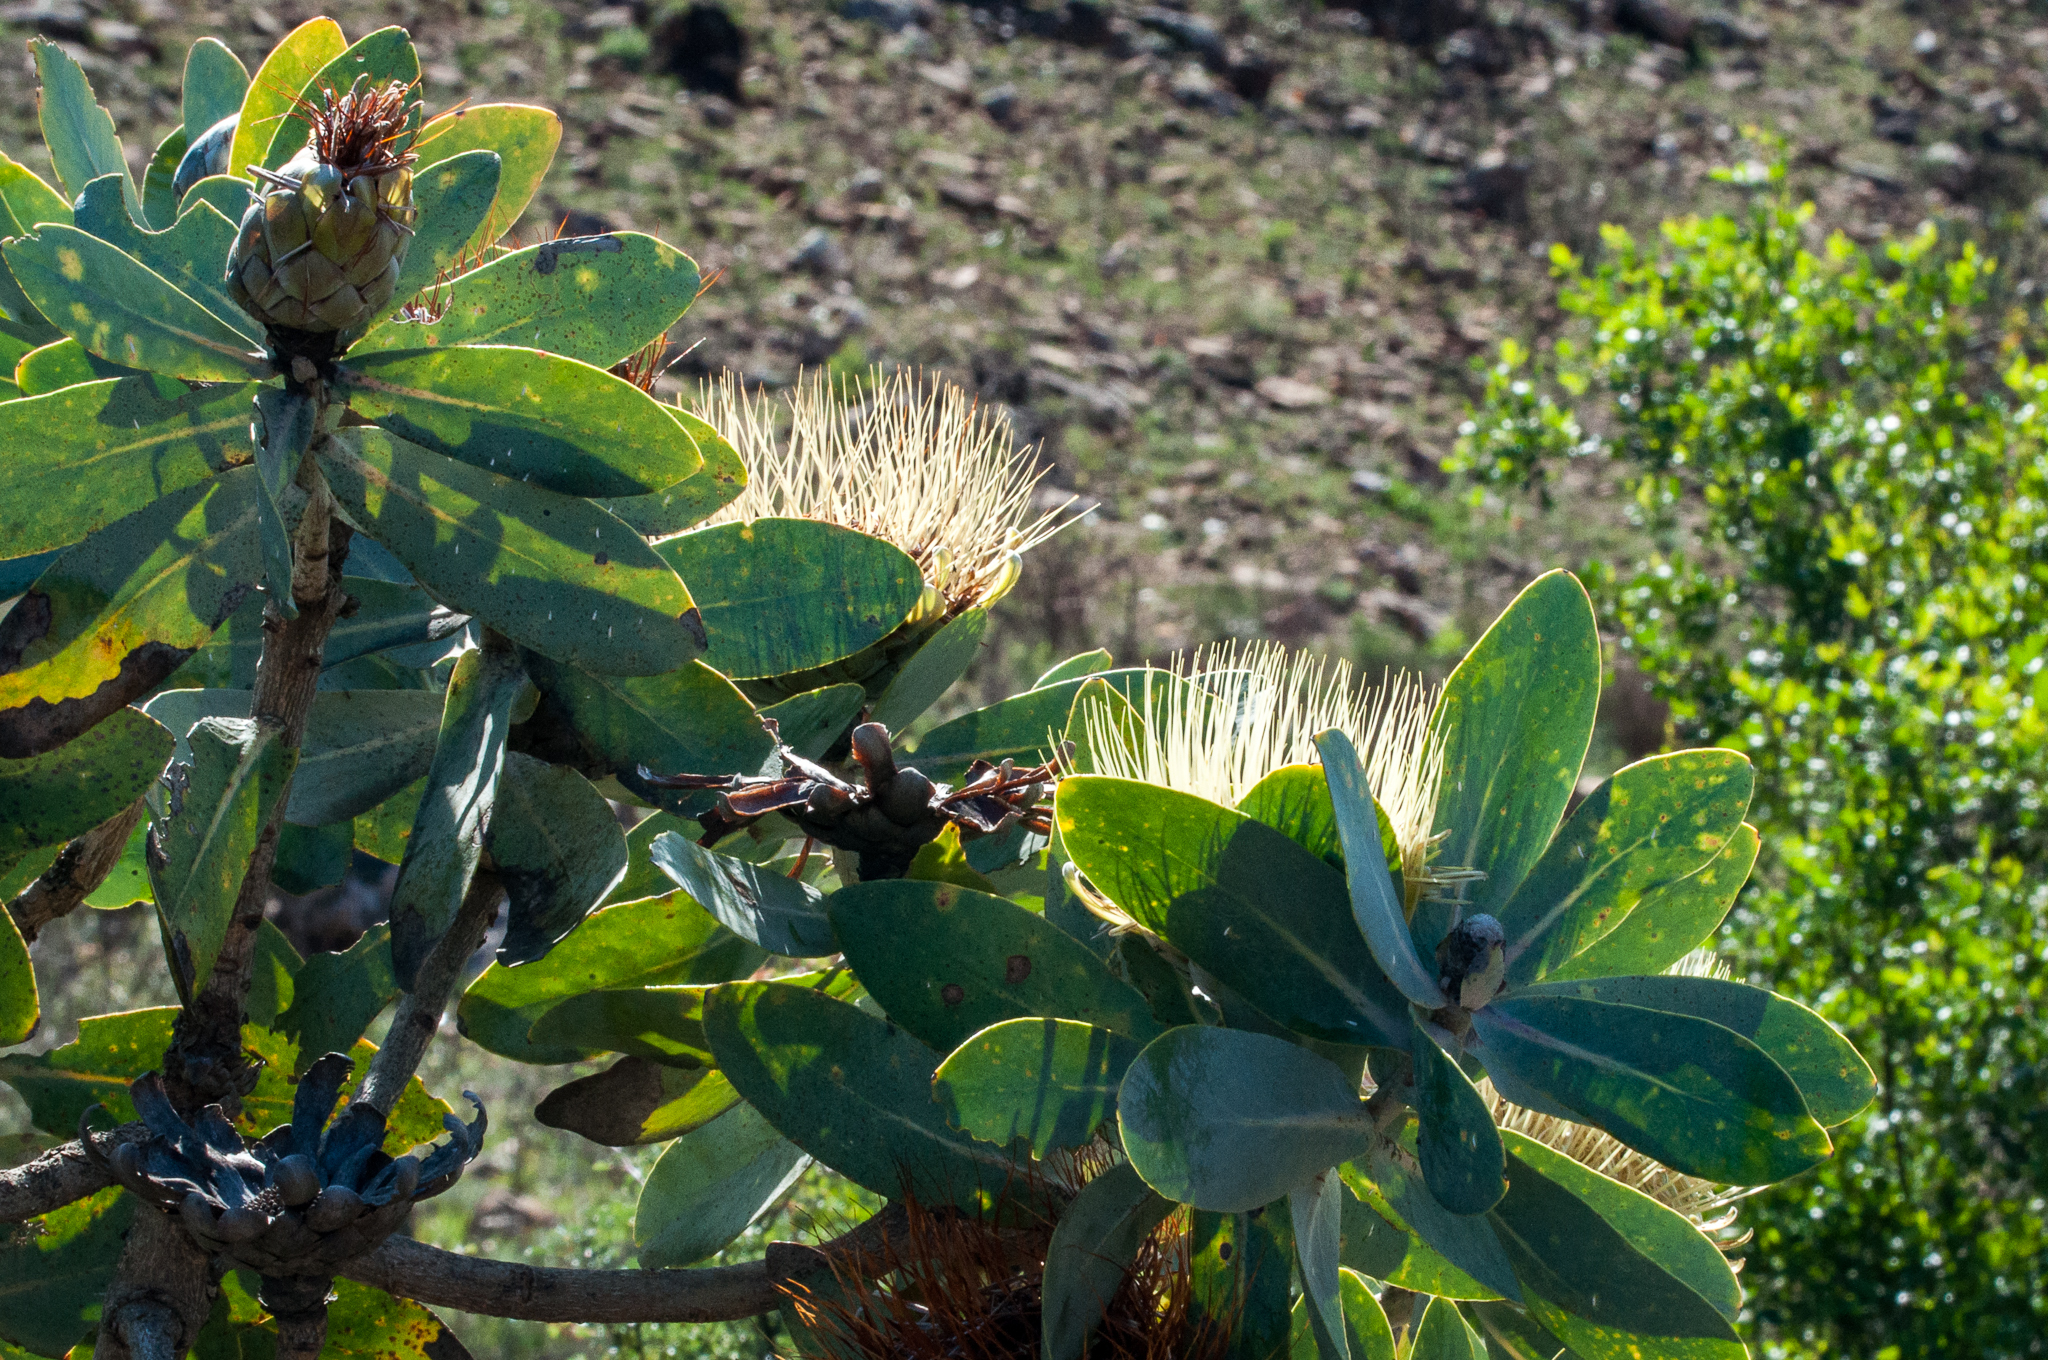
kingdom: Plantae
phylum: Tracheophyta
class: Magnoliopsida
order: Proteales
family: Proteaceae
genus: Protea
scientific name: Protea nitida
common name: Tree protea
